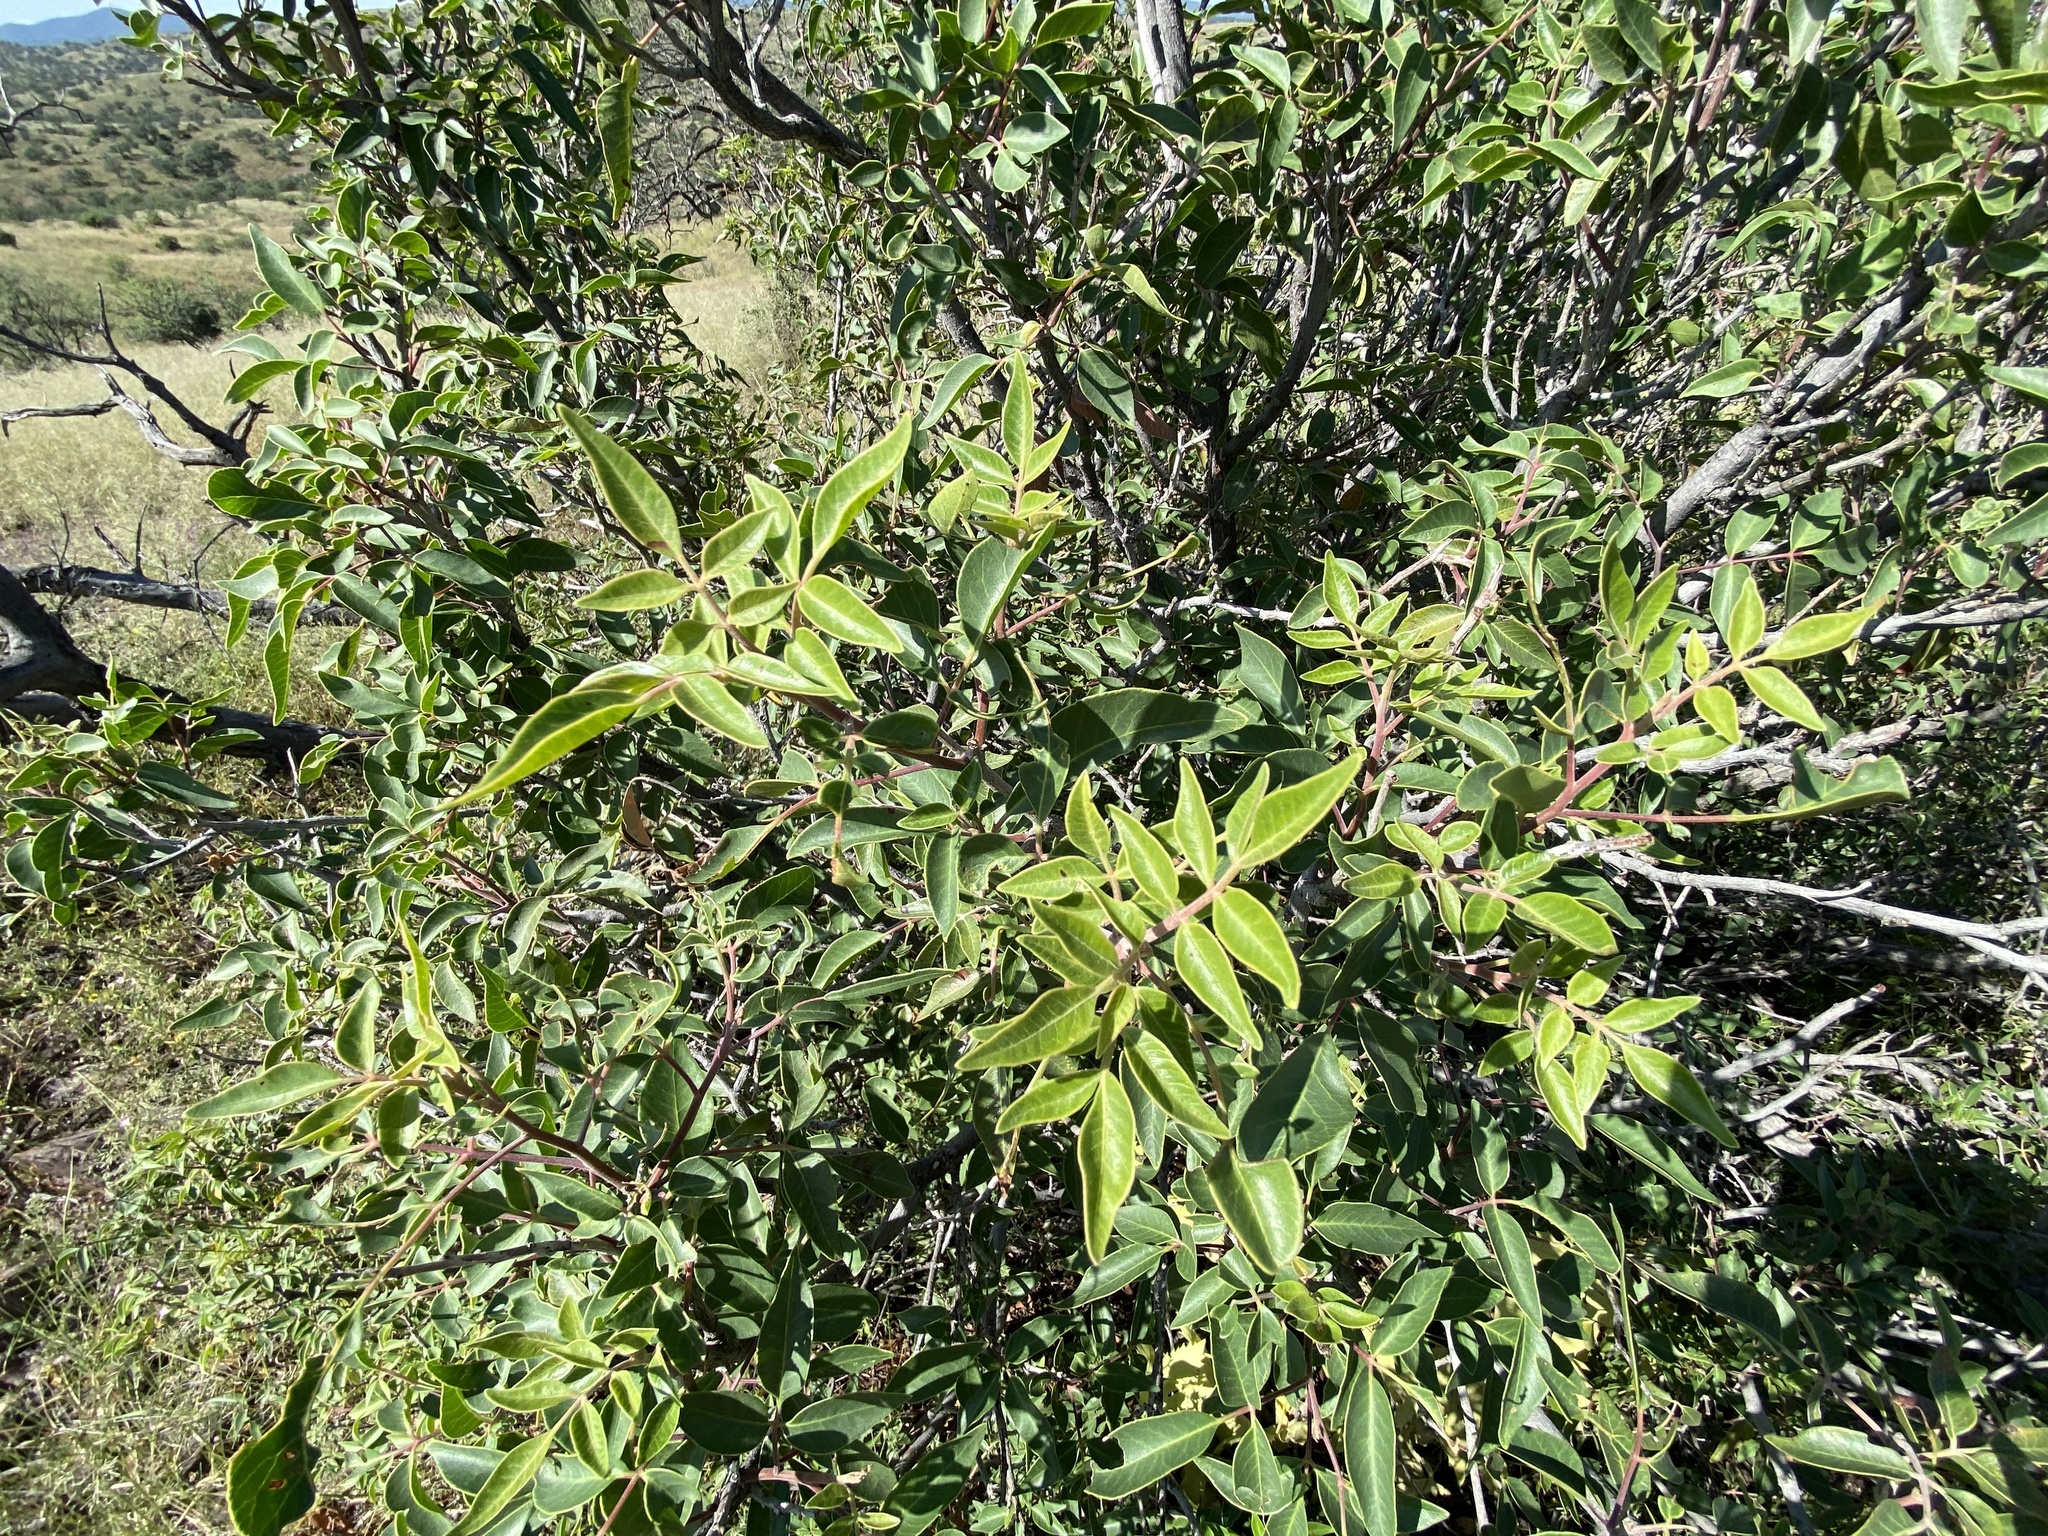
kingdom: Plantae
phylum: Tracheophyta
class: Magnoliopsida
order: Sapindales
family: Anacardiaceae
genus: Rhus
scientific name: Rhus virens
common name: Evergreen sumac
